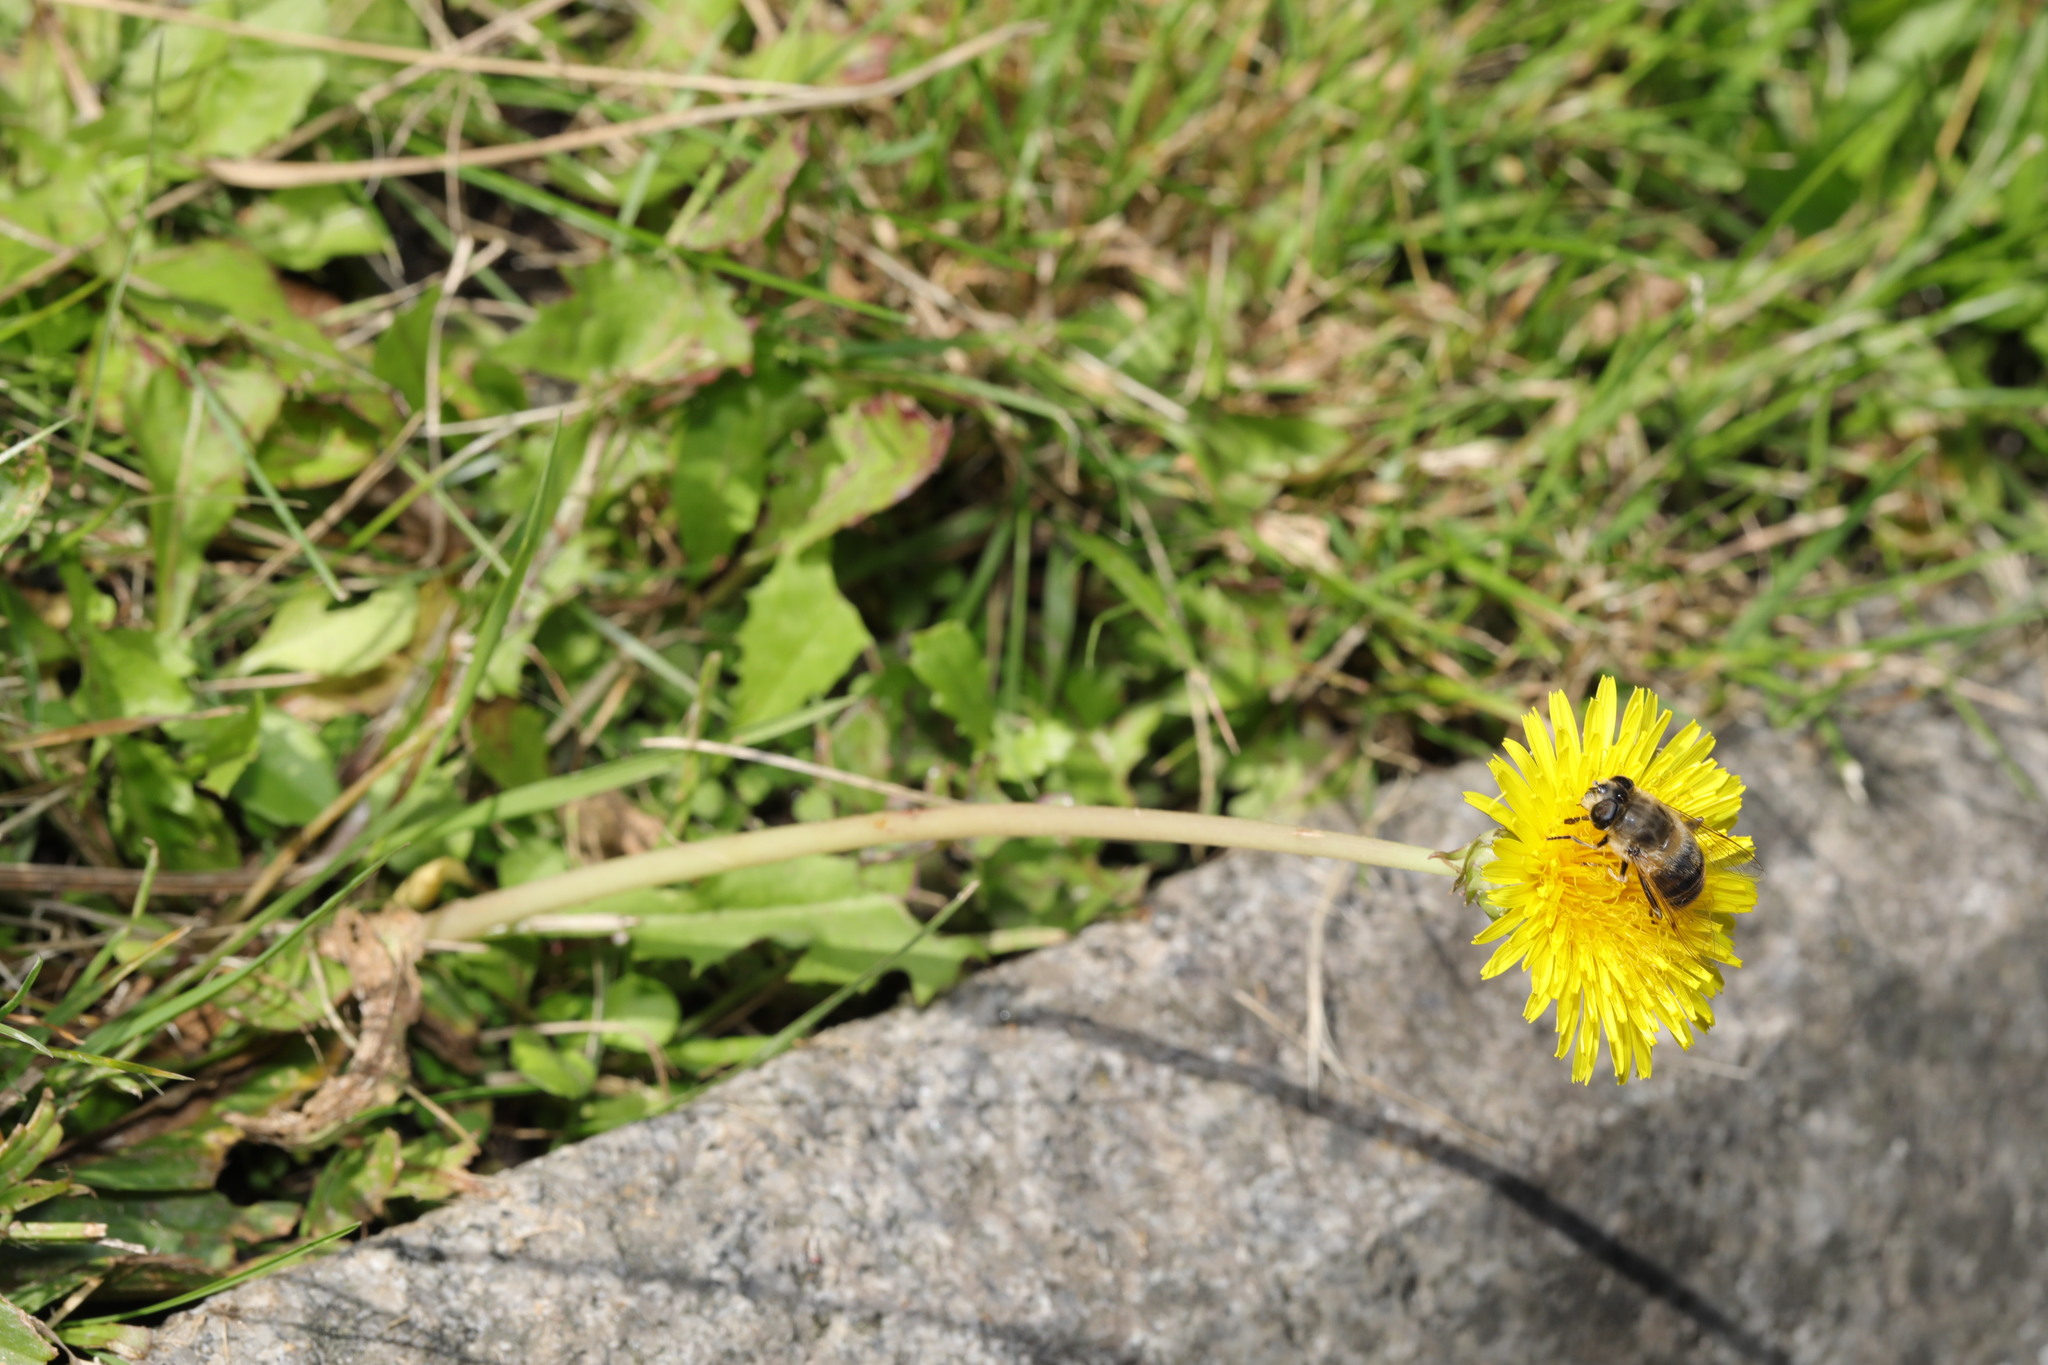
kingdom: Plantae
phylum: Tracheophyta
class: Magnoliopsida
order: Asterales
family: Asteraceae
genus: Taraxacum
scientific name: Taraxacum officinale
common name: Common dandelion
